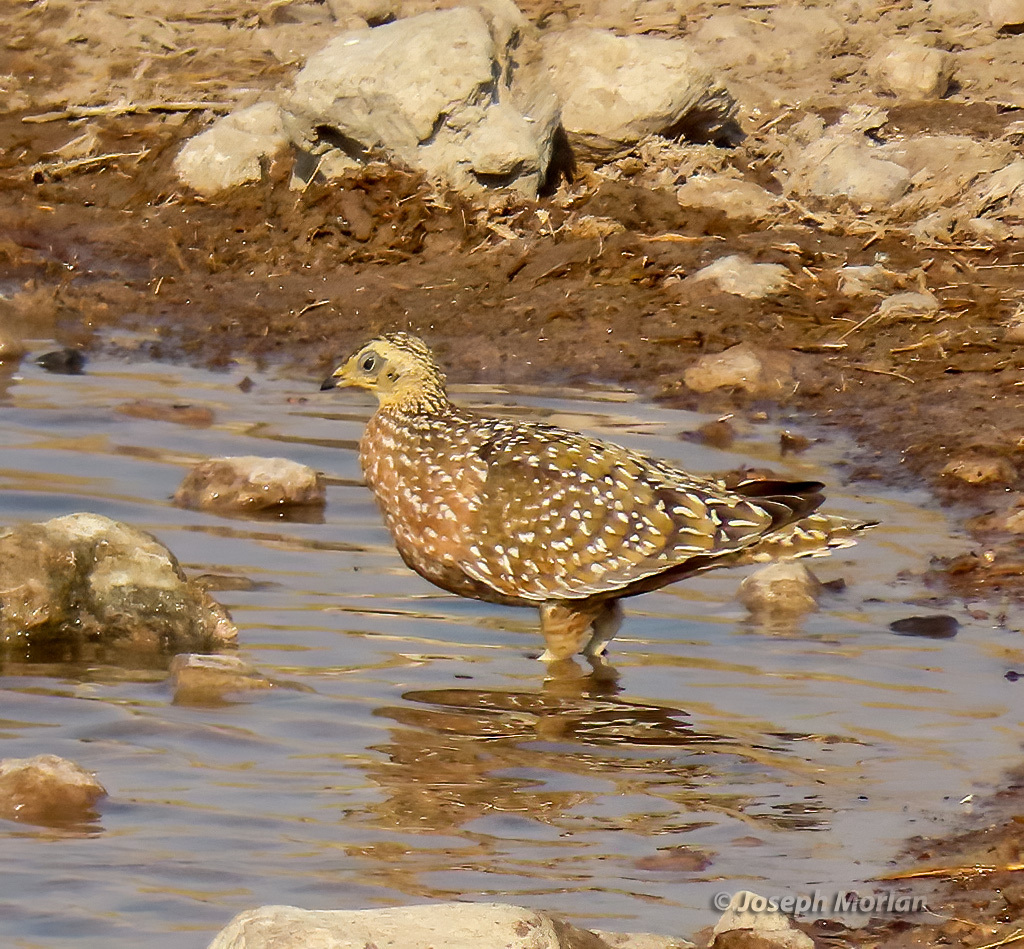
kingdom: Animalia
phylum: Chordata
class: Aves
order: Pteroclidiformes
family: Pteroclididae
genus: Pterocles
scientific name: Pterocles burchelli
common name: Burchell's sandgrouse
